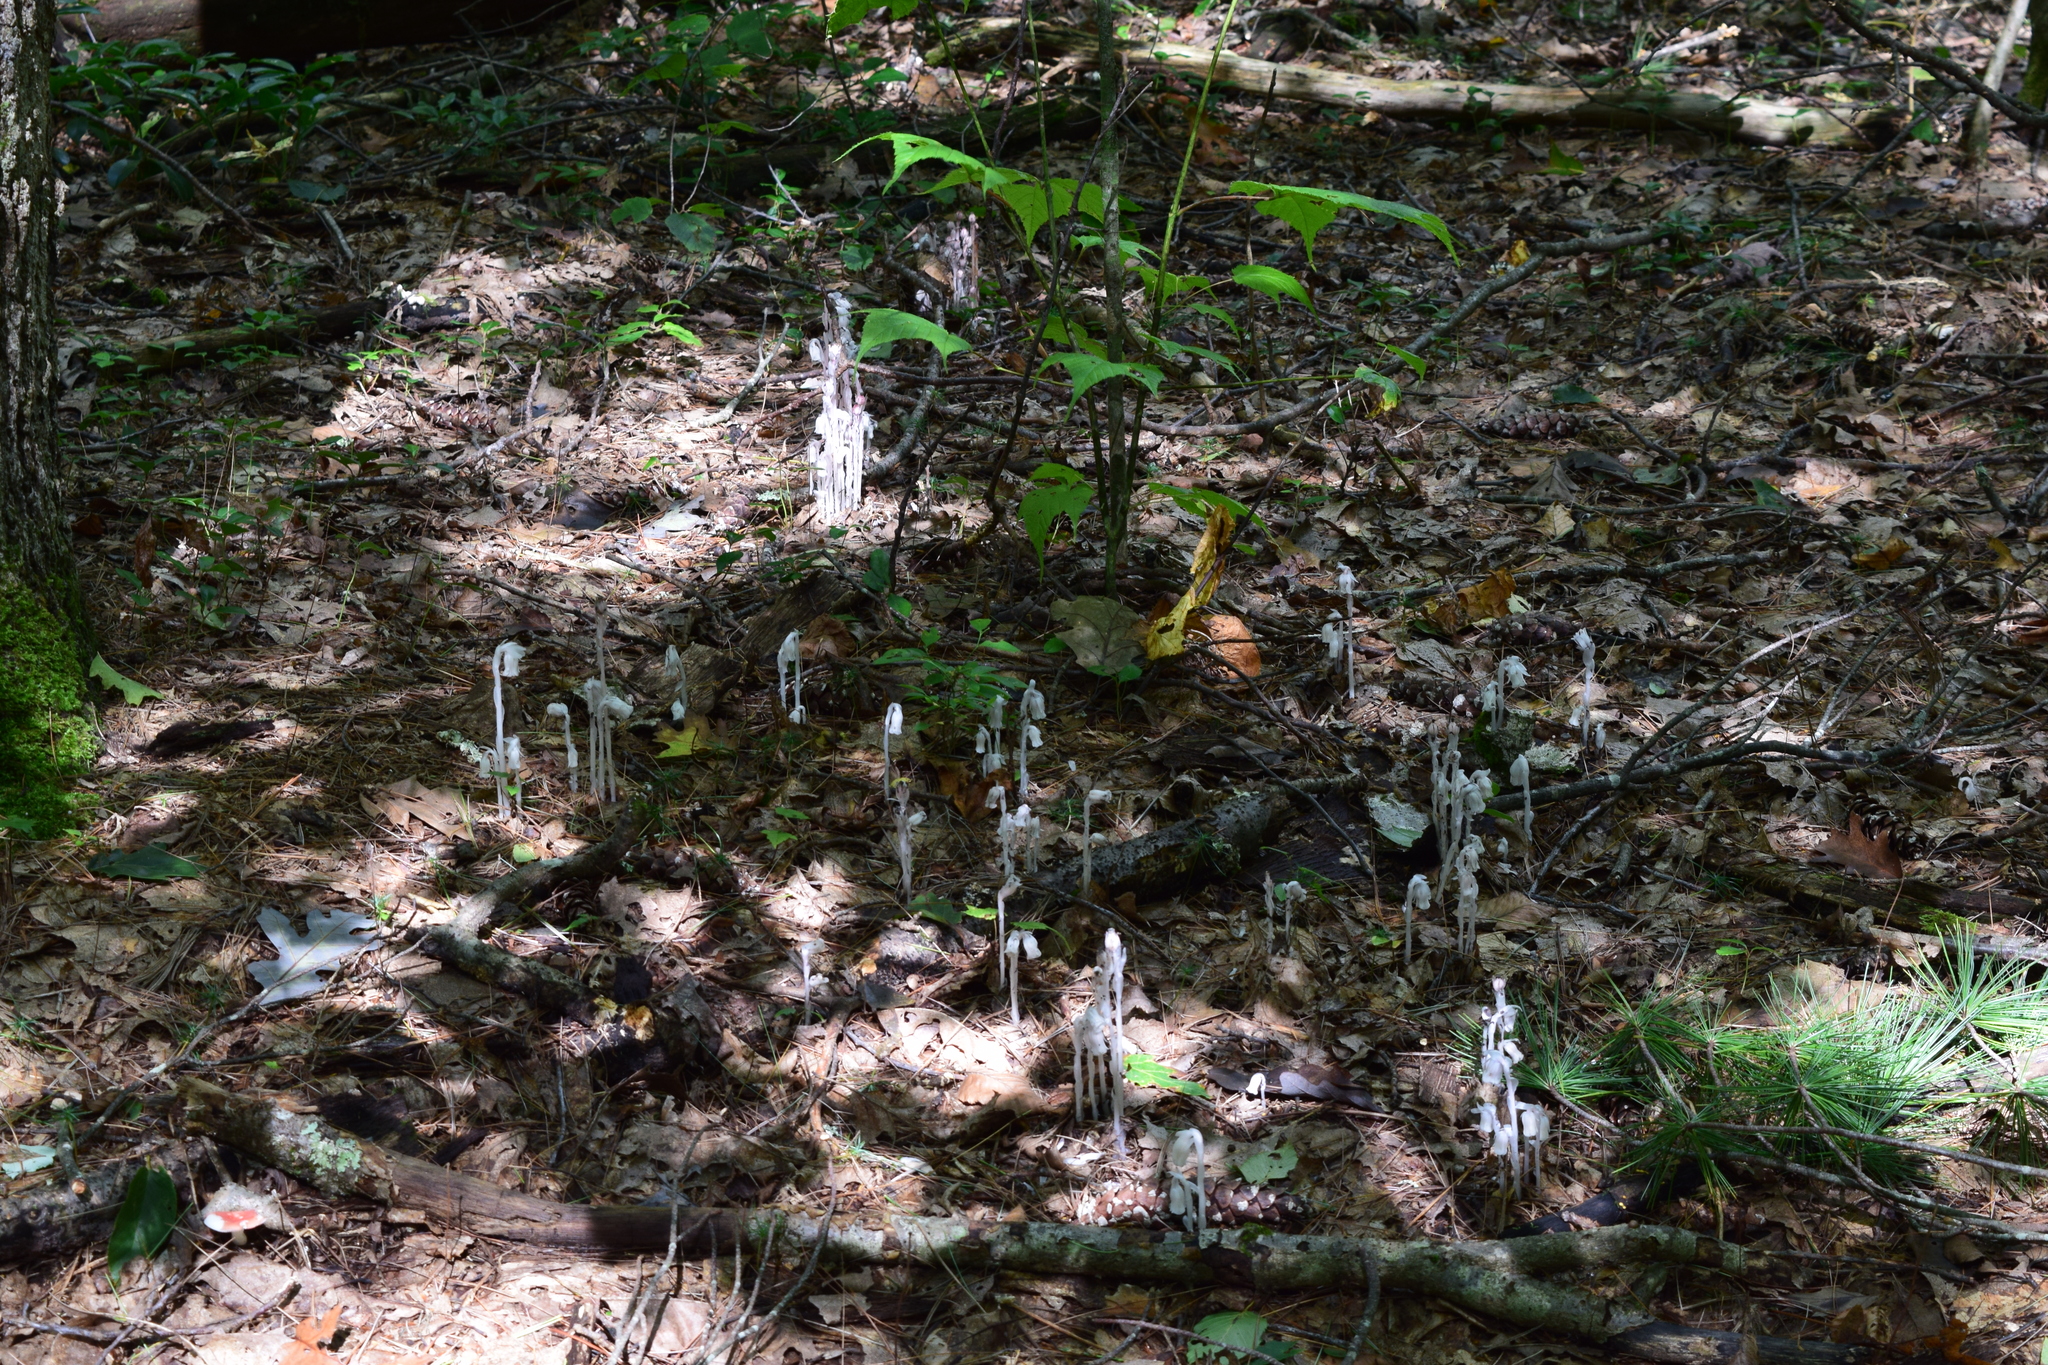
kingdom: Plantae
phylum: Tracheophyta
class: Magnoliopsida
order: Ericales
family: Ericaceae
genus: Monotropa
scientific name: Monotropa uniflora
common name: Convulsion root
